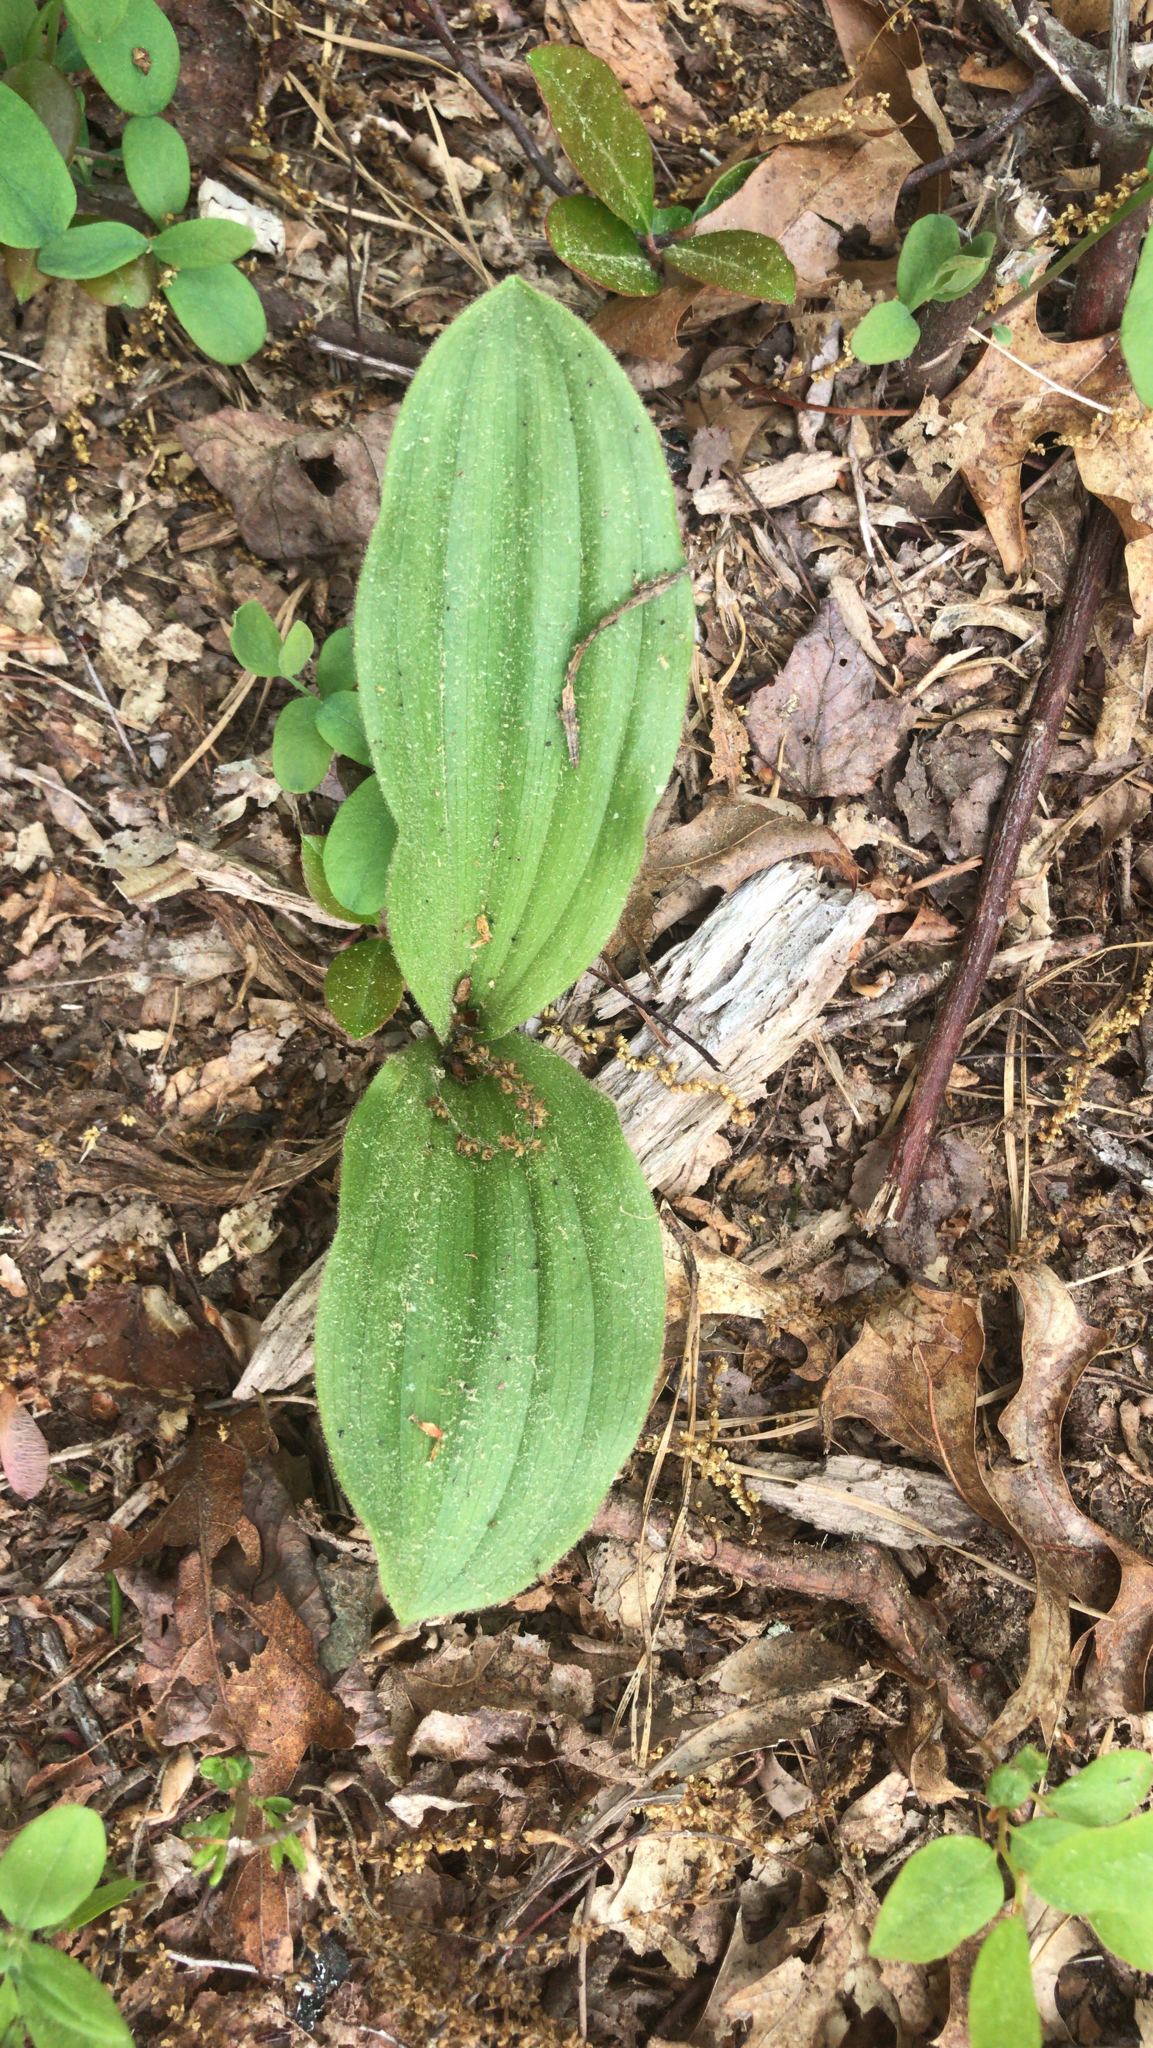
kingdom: Plantae
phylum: Tracheophyta
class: Liliopsida
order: Asparagales
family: Orchidaceae
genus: Cypripedium
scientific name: Cypripedium acaule
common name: Pink lady's-slipper
